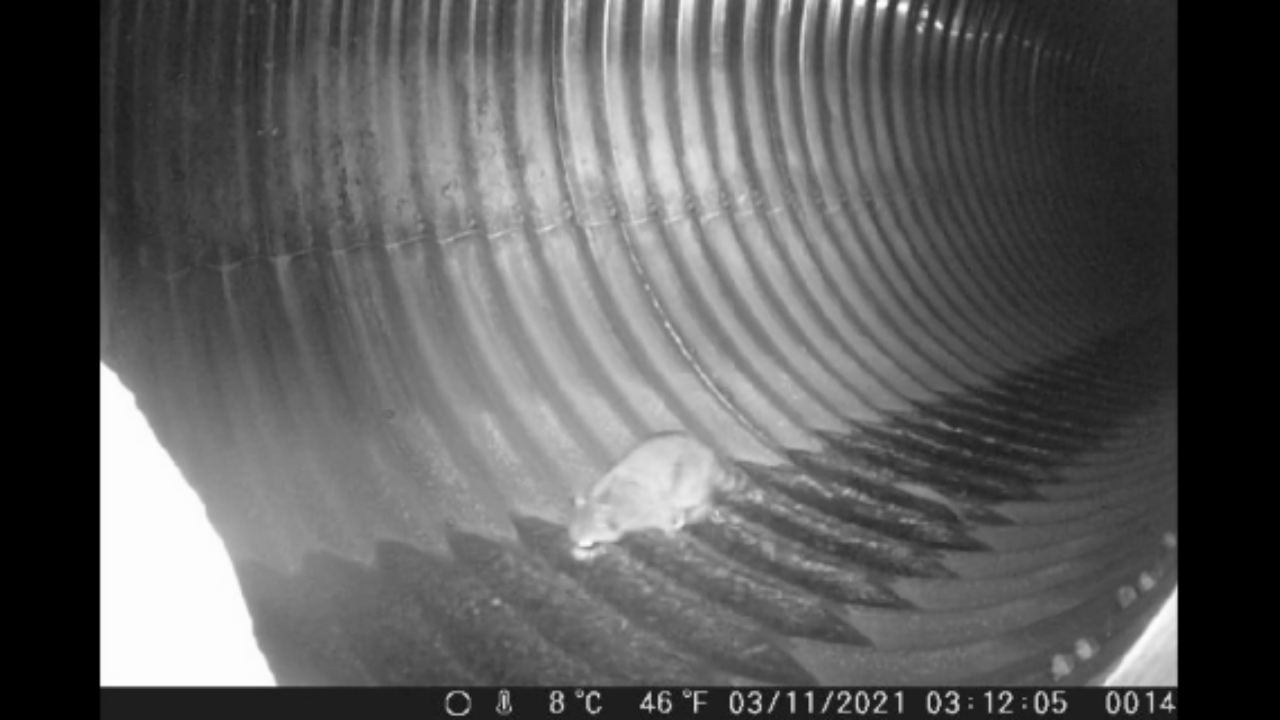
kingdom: Animalia
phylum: Chordata
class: Mammalia
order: Carnivora
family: Procyonidae
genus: Procyon
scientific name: Procyon lotor
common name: Raccoon
